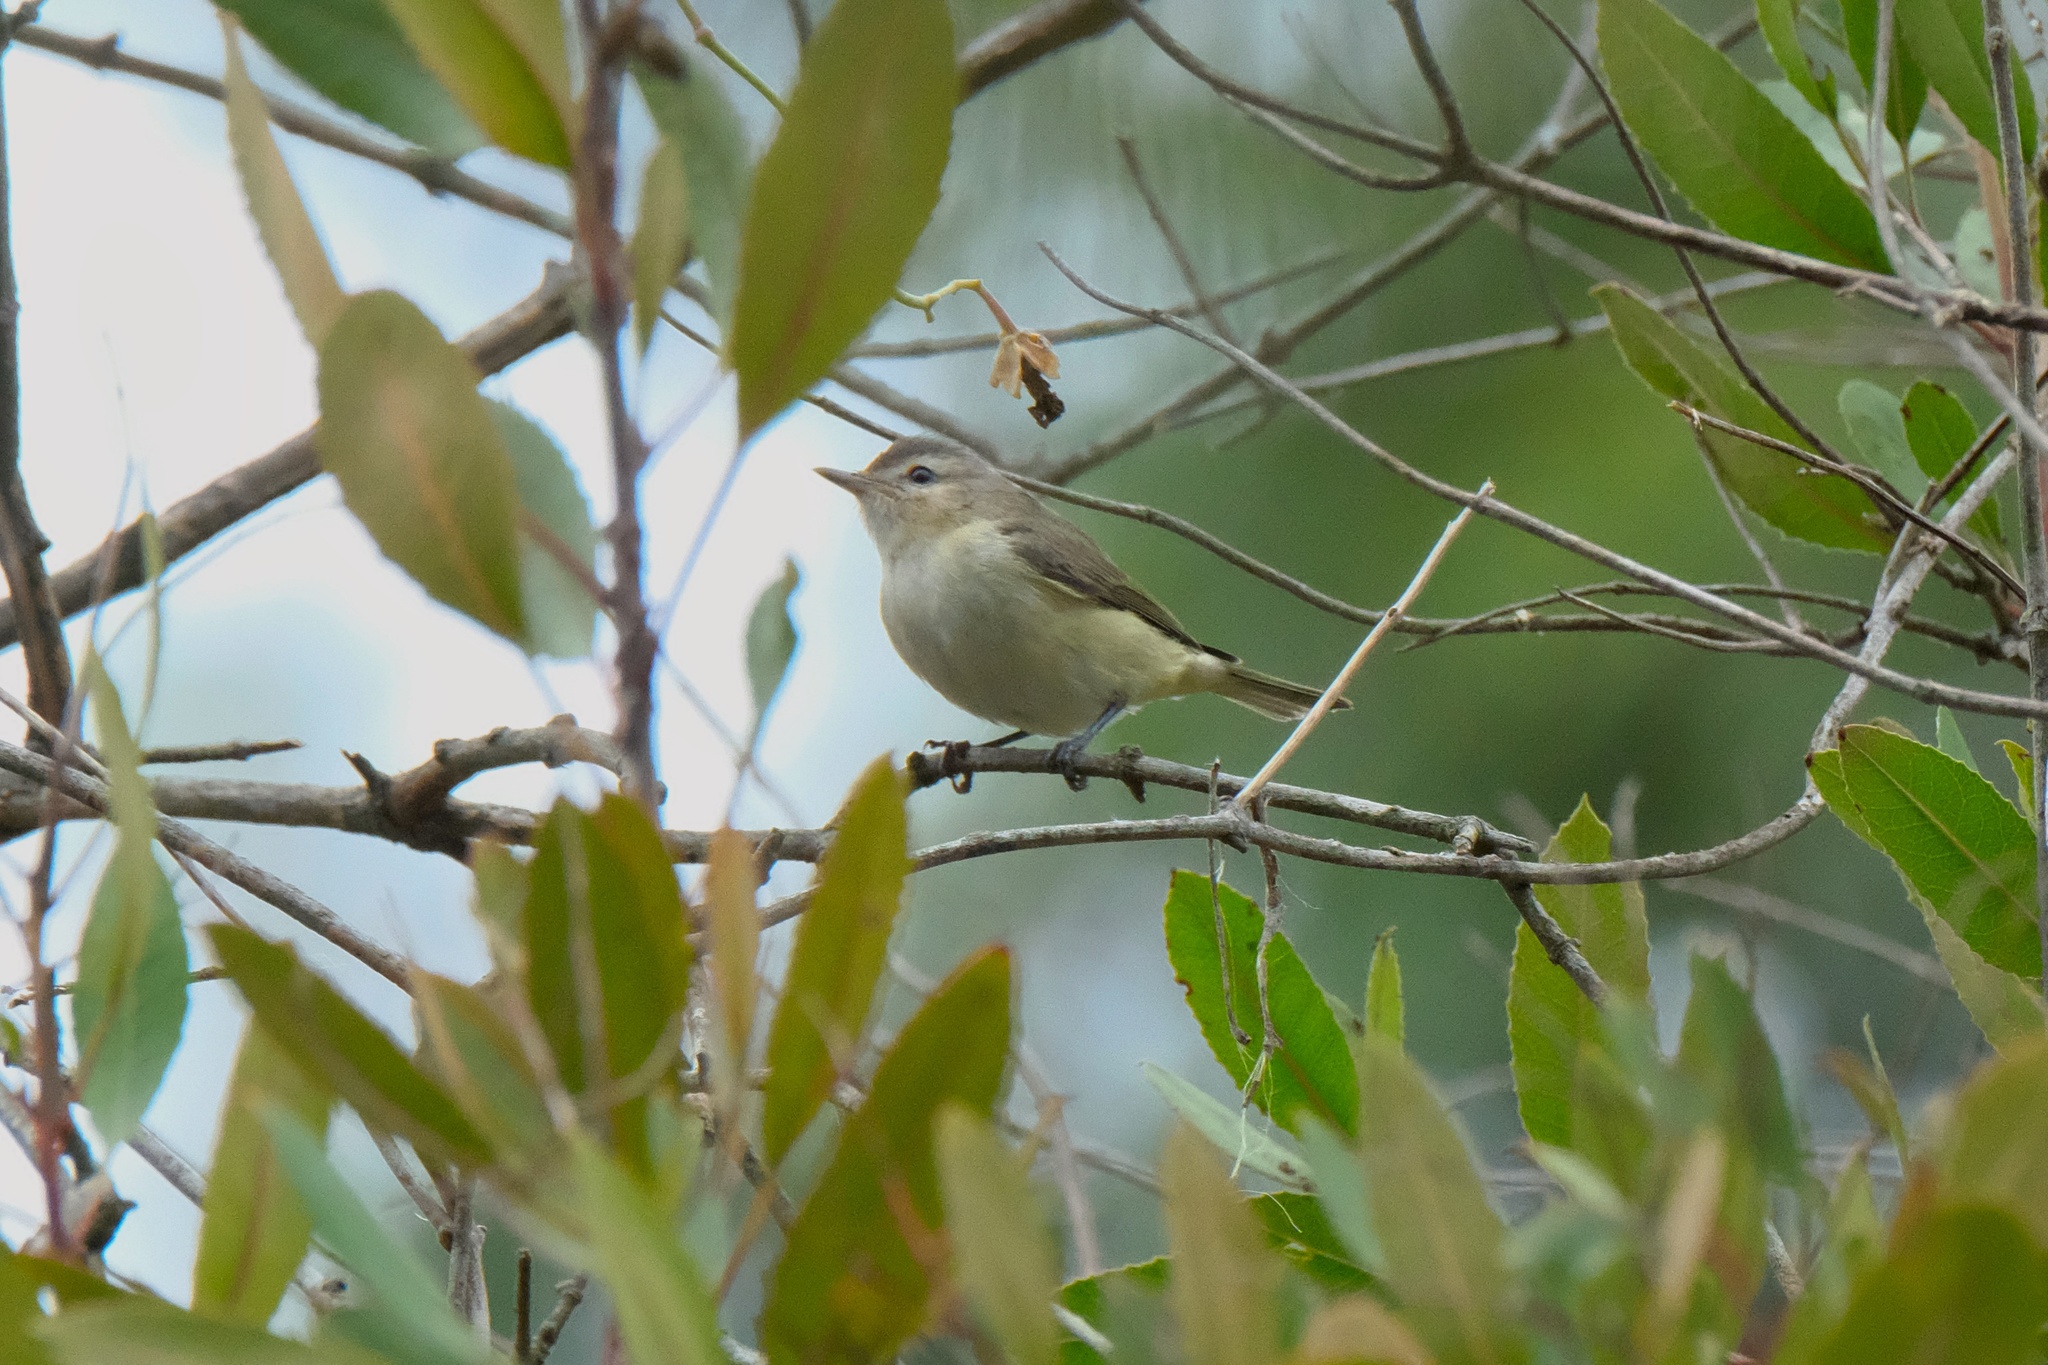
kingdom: Animalia
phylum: Chordata
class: Aves
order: Passeriformes
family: Vireonidae
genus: Vireo
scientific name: Vireo gilvus
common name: Warbling vireo
